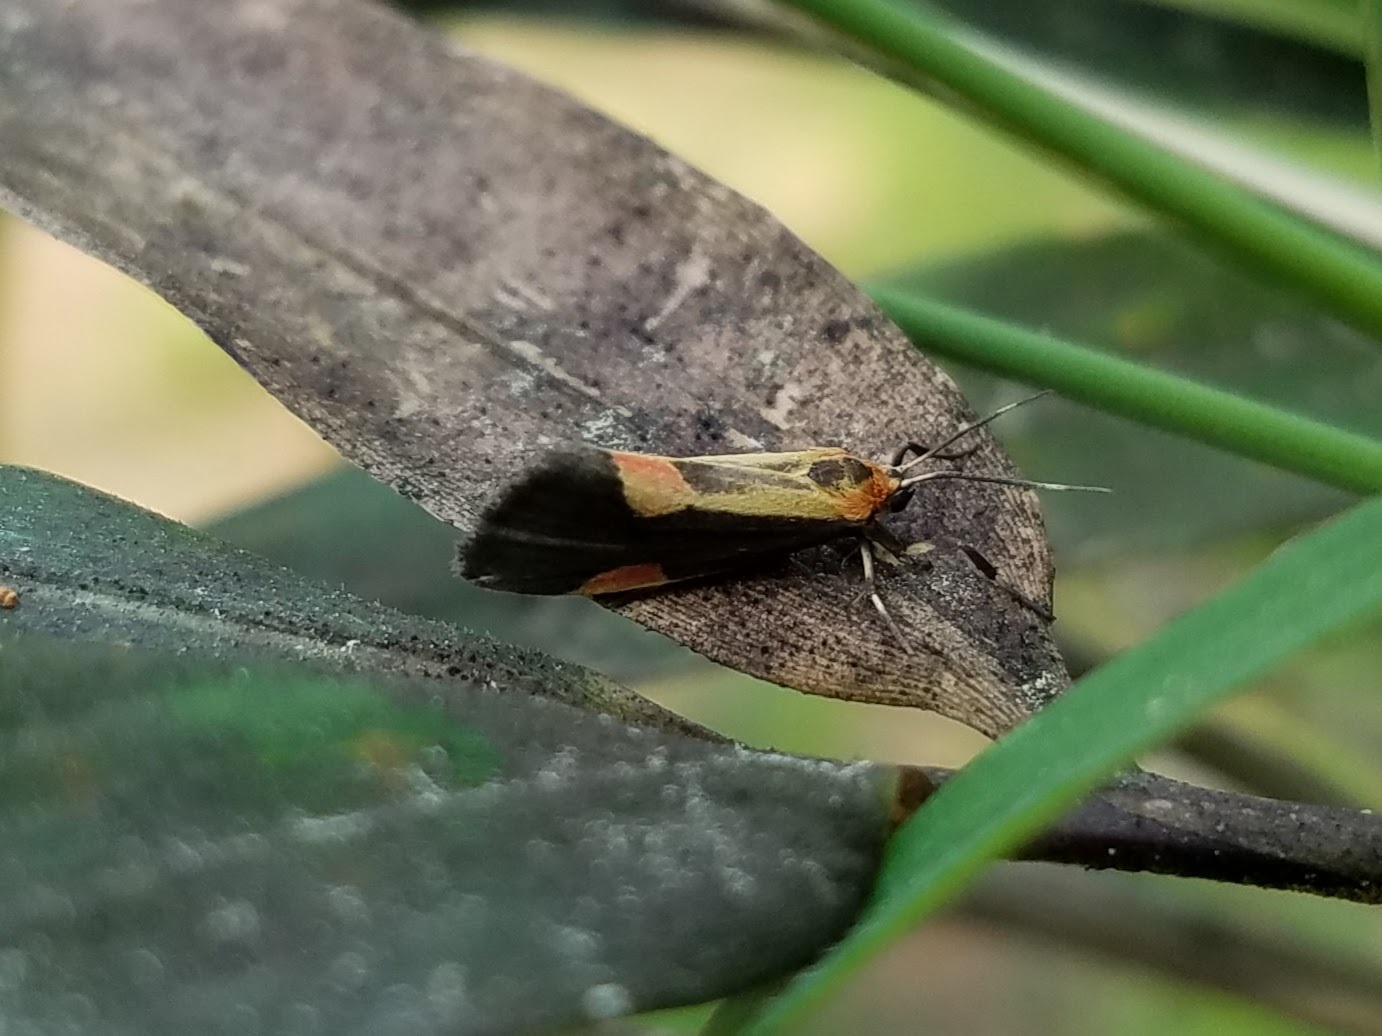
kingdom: Animalia
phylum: Arthropoda
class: Insecta
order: Lepidoptera
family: Erebidae
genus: Cisthene
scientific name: Cisthene packardii
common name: Packard's lichen moth
